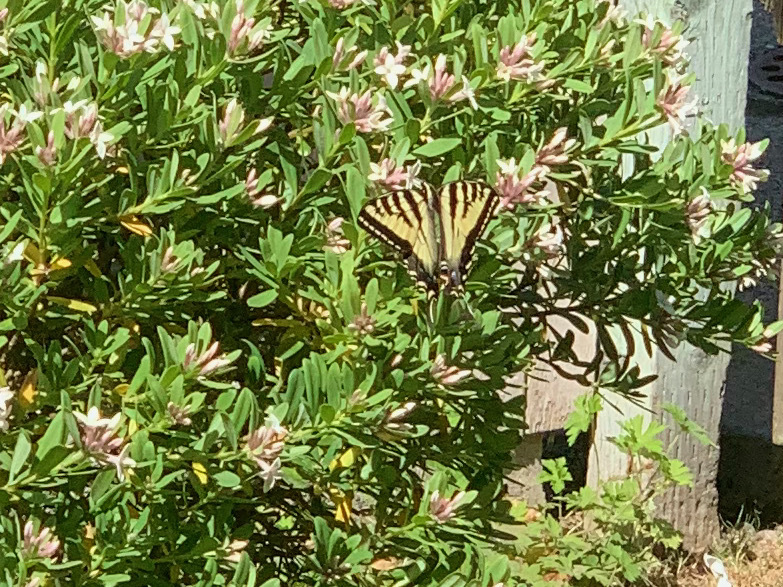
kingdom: Animalia
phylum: Arthropoda
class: Insecta
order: Lepidoptera
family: Papilionidae
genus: Papilio
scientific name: Papilio rutulus
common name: Western tiger swallowtail
